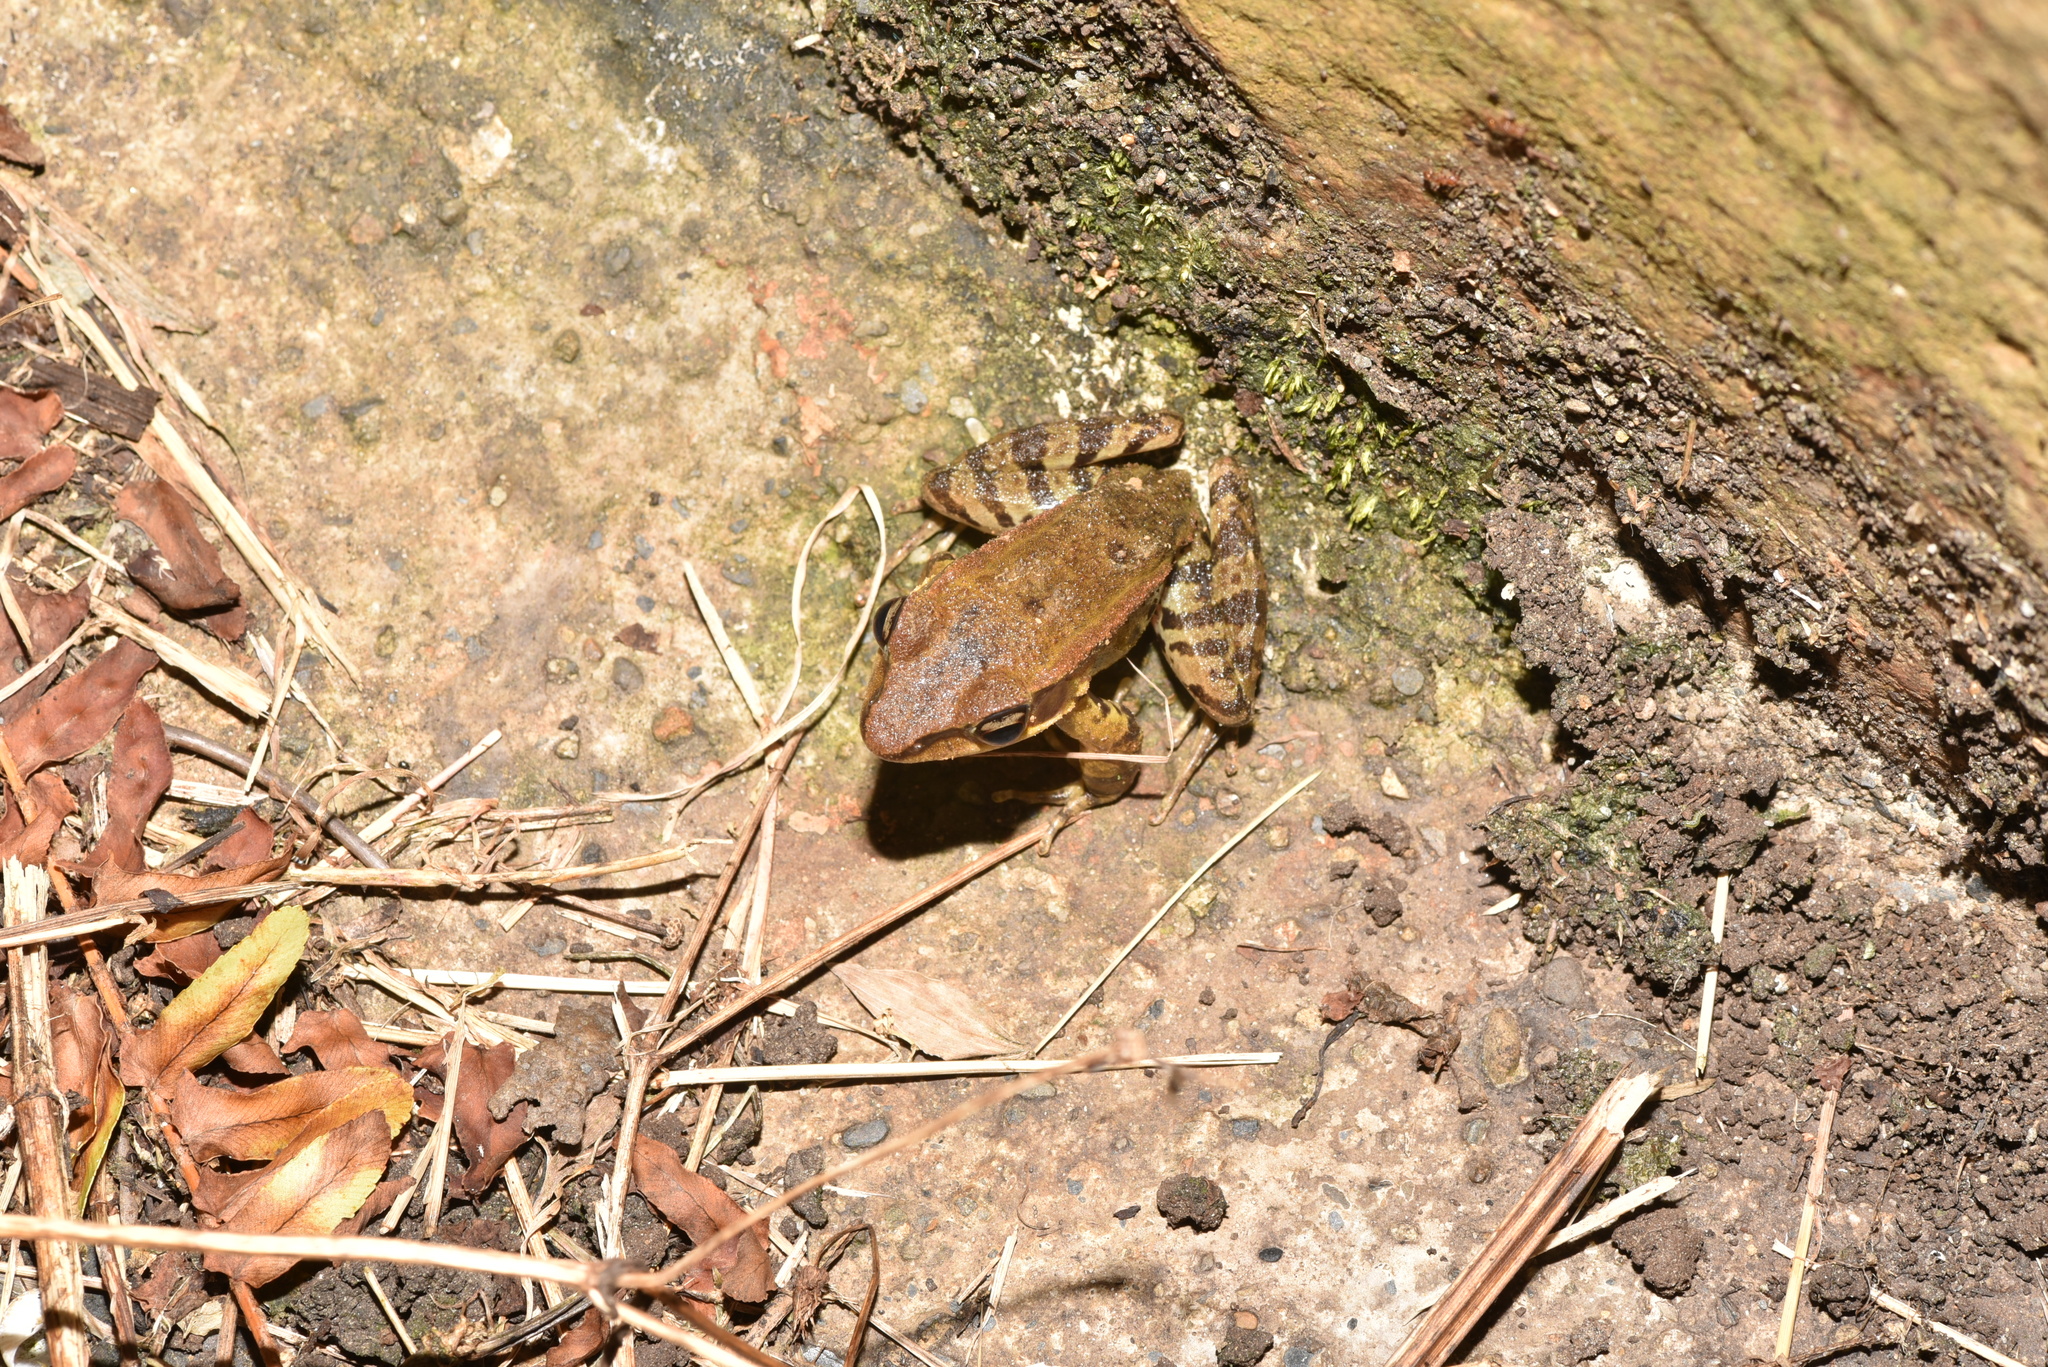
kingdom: Animalia
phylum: Chordata
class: Amphibia
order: Anura
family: Ranidae
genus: Hylarana
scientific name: Hylarana latouchii
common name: Broad-folded frog
